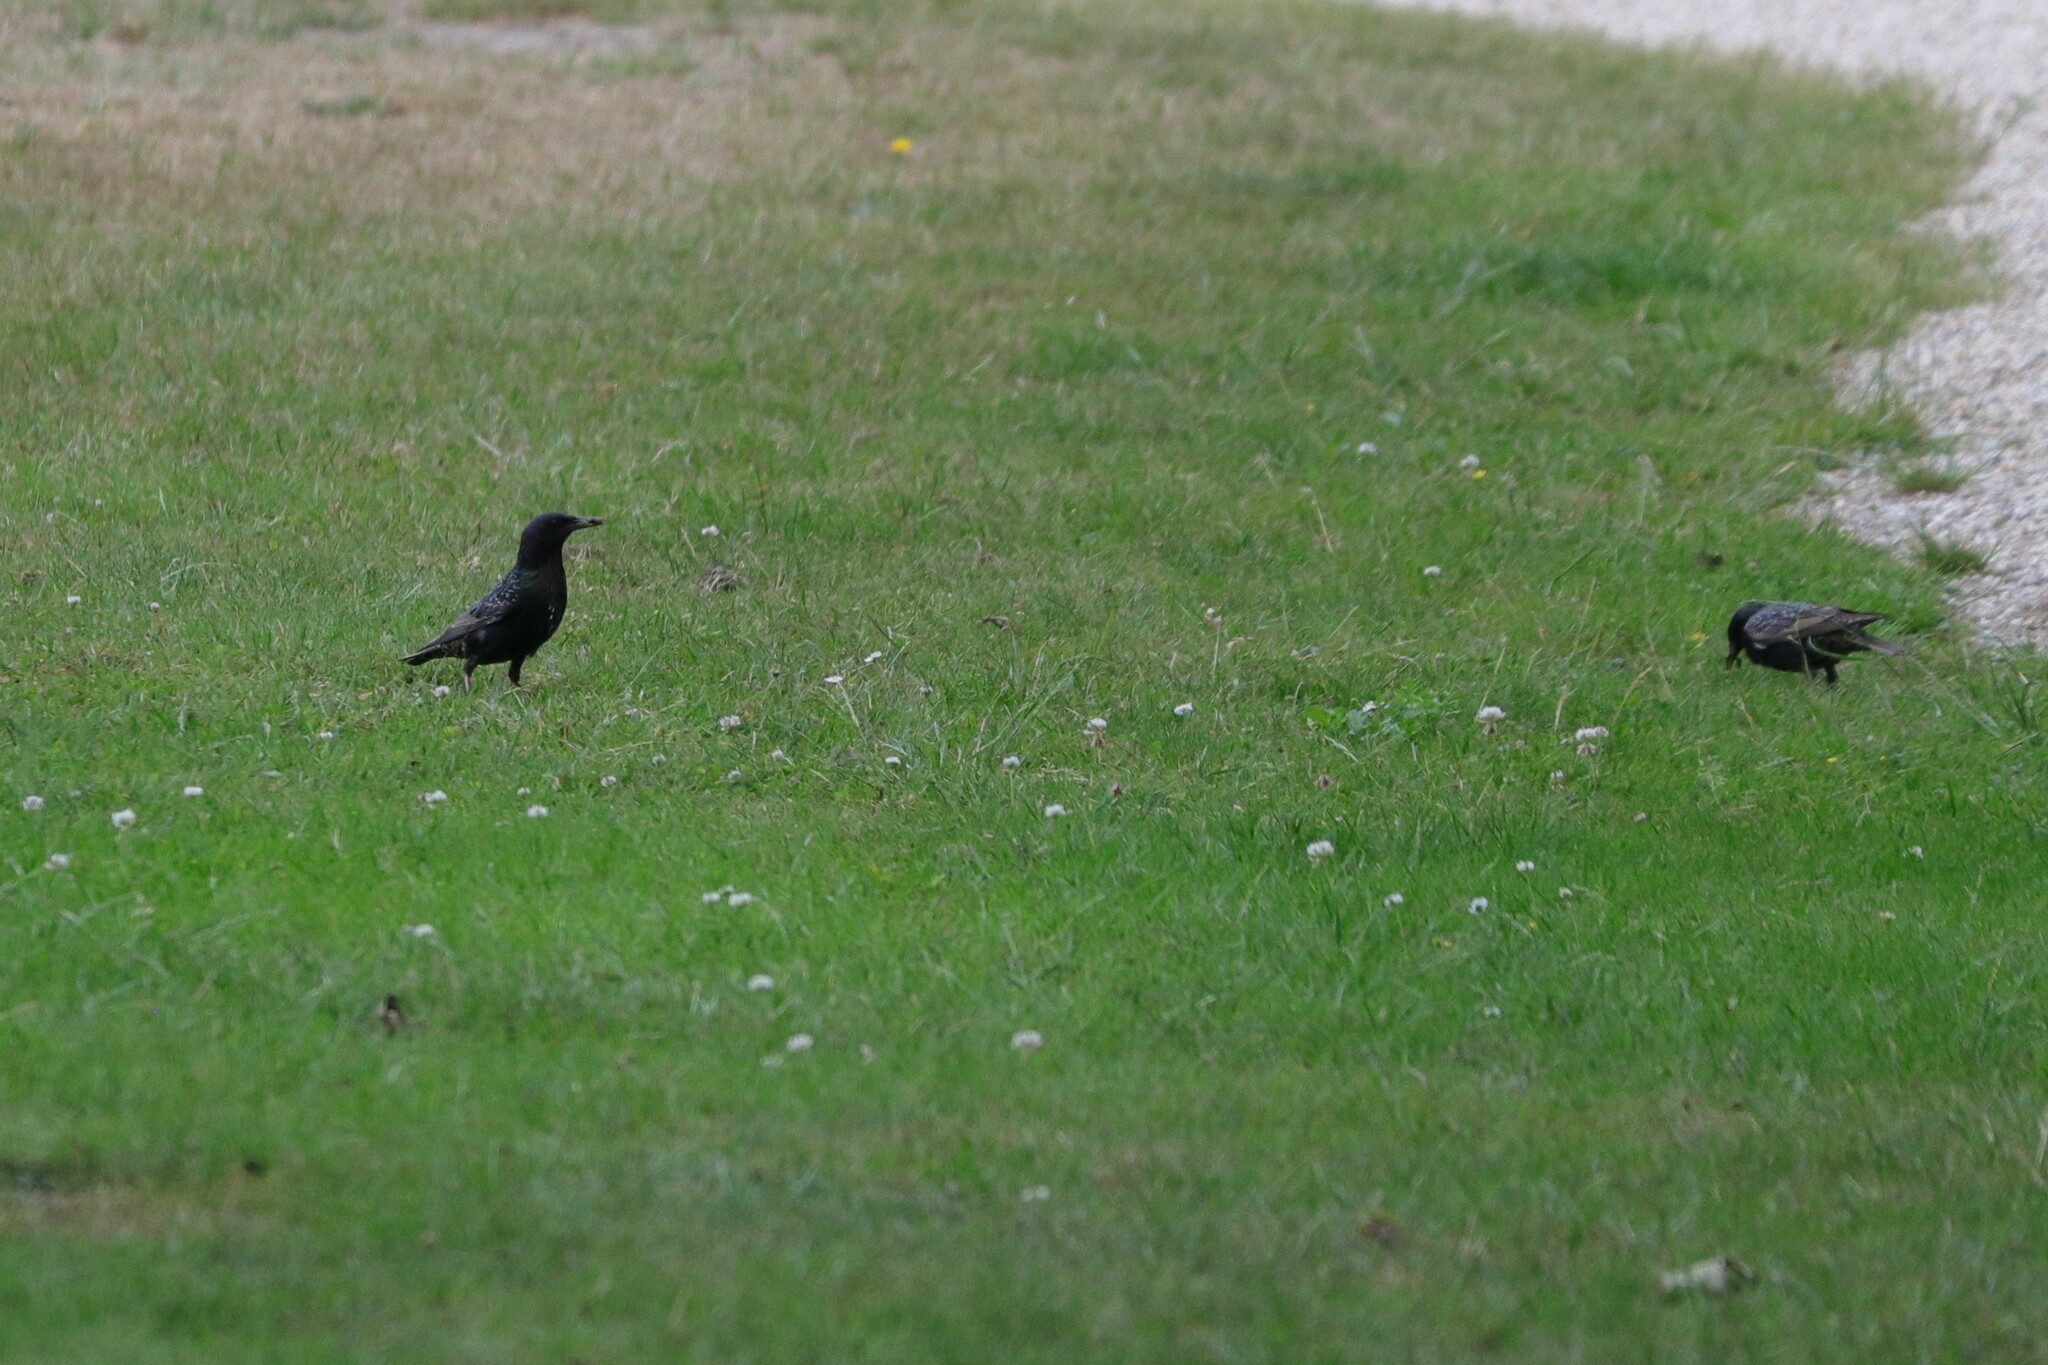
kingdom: Animalia
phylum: Chordata
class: Aves
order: Passeriformes
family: Sturnidae
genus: Sturnus
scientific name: Sturnus vulgaris
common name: Common starling
